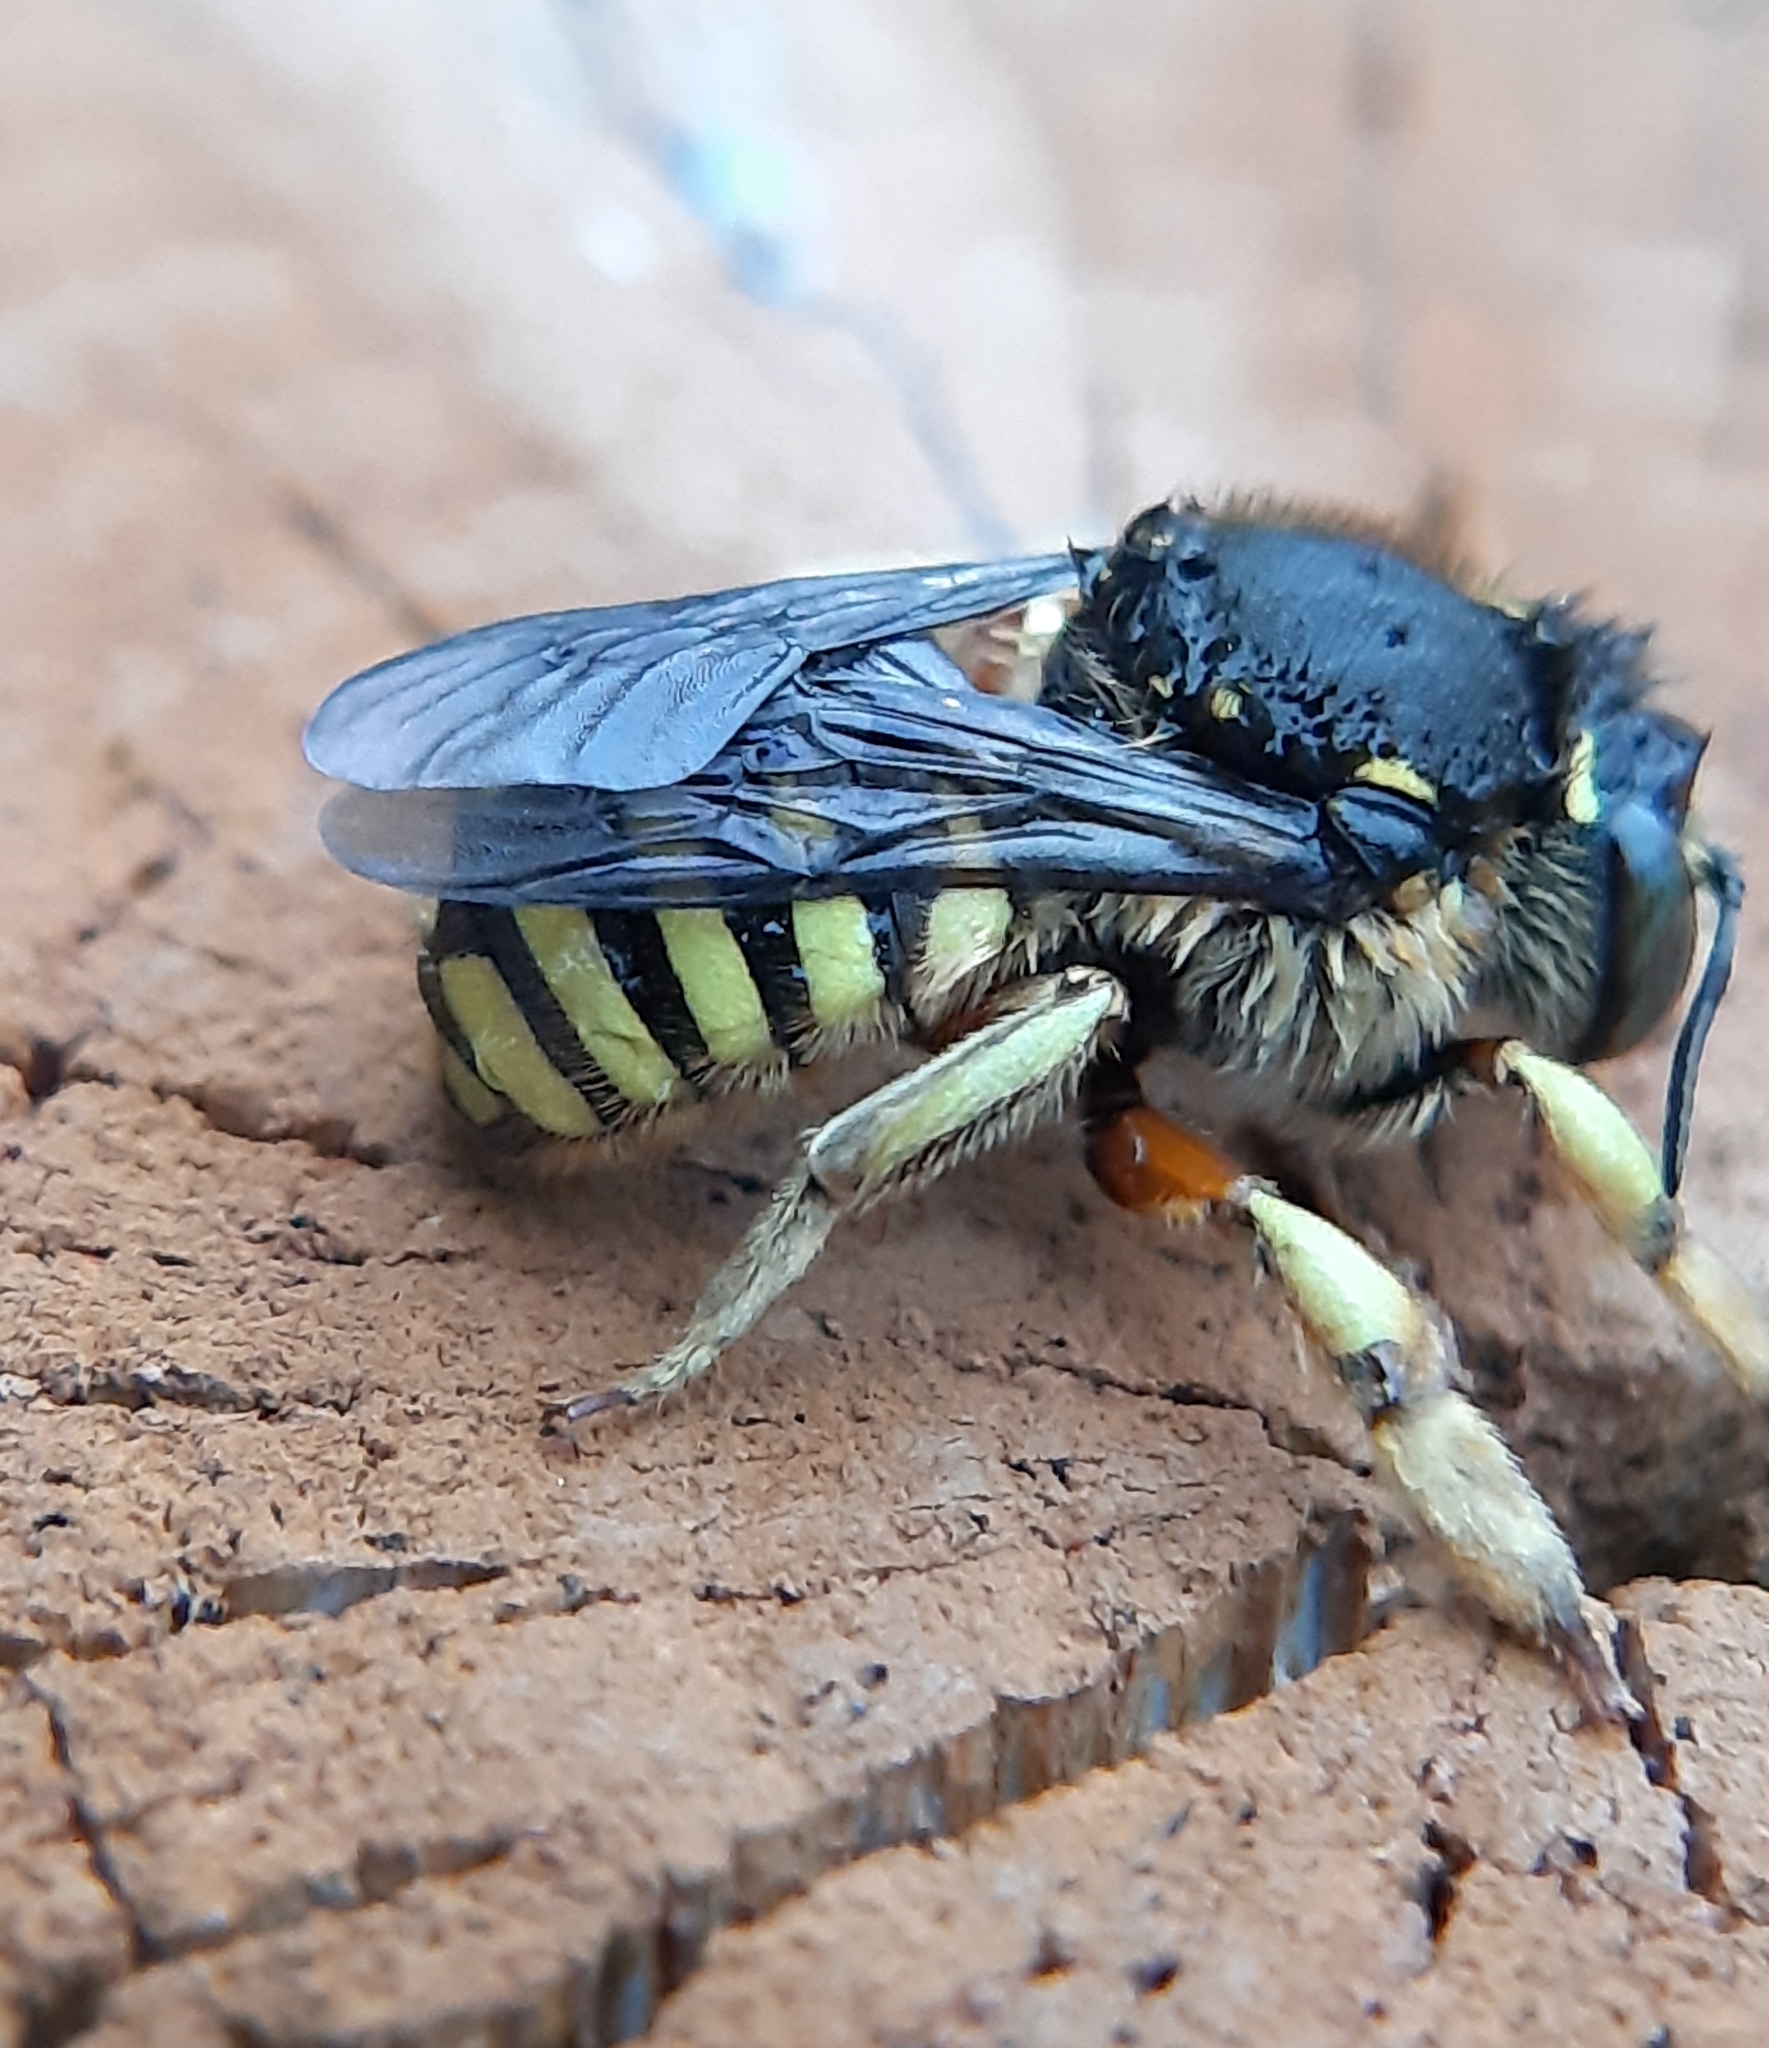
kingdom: Animalia
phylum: Arthropoda
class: Insecta
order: Hymenoptera
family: Megachilidae
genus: Anthidium
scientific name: Anthidium manicatum
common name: Wool carder bee
